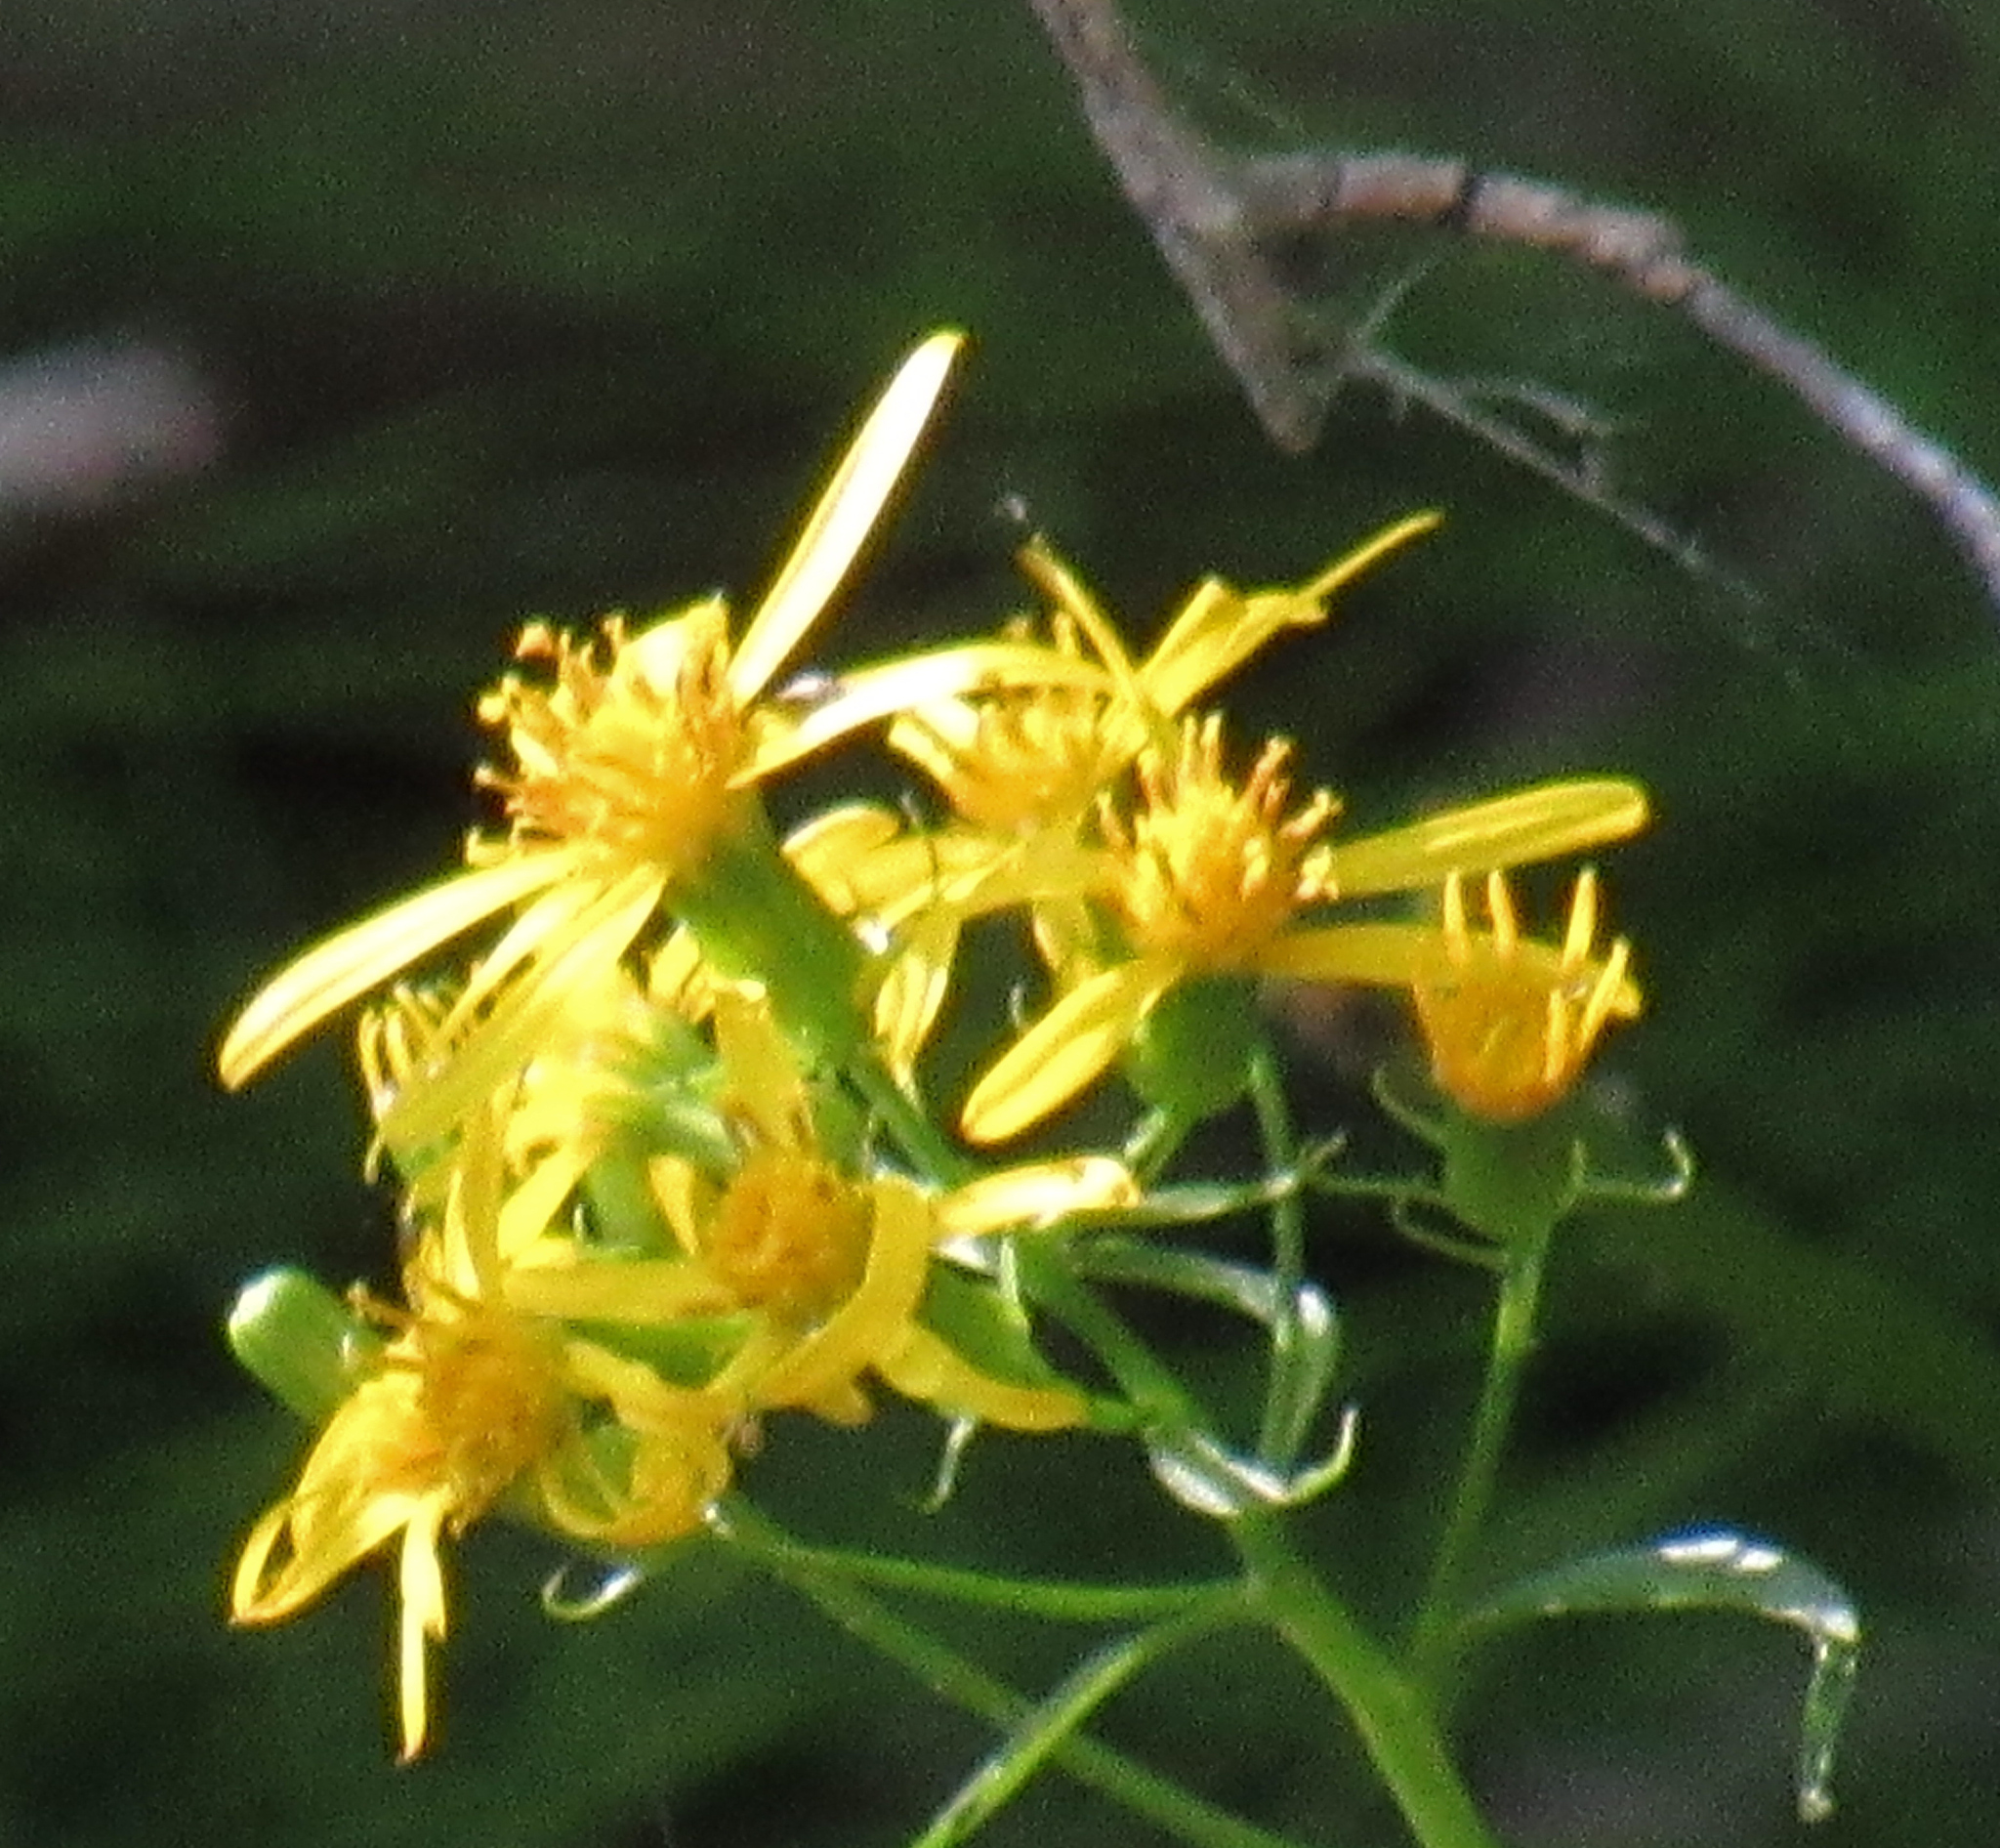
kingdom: Plantae
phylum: Tracheophyta
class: Magnoliopsida
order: Asterales
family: Asteraceae
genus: Senecio
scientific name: Senecio triangularis
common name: Arrowleaf butterweed
